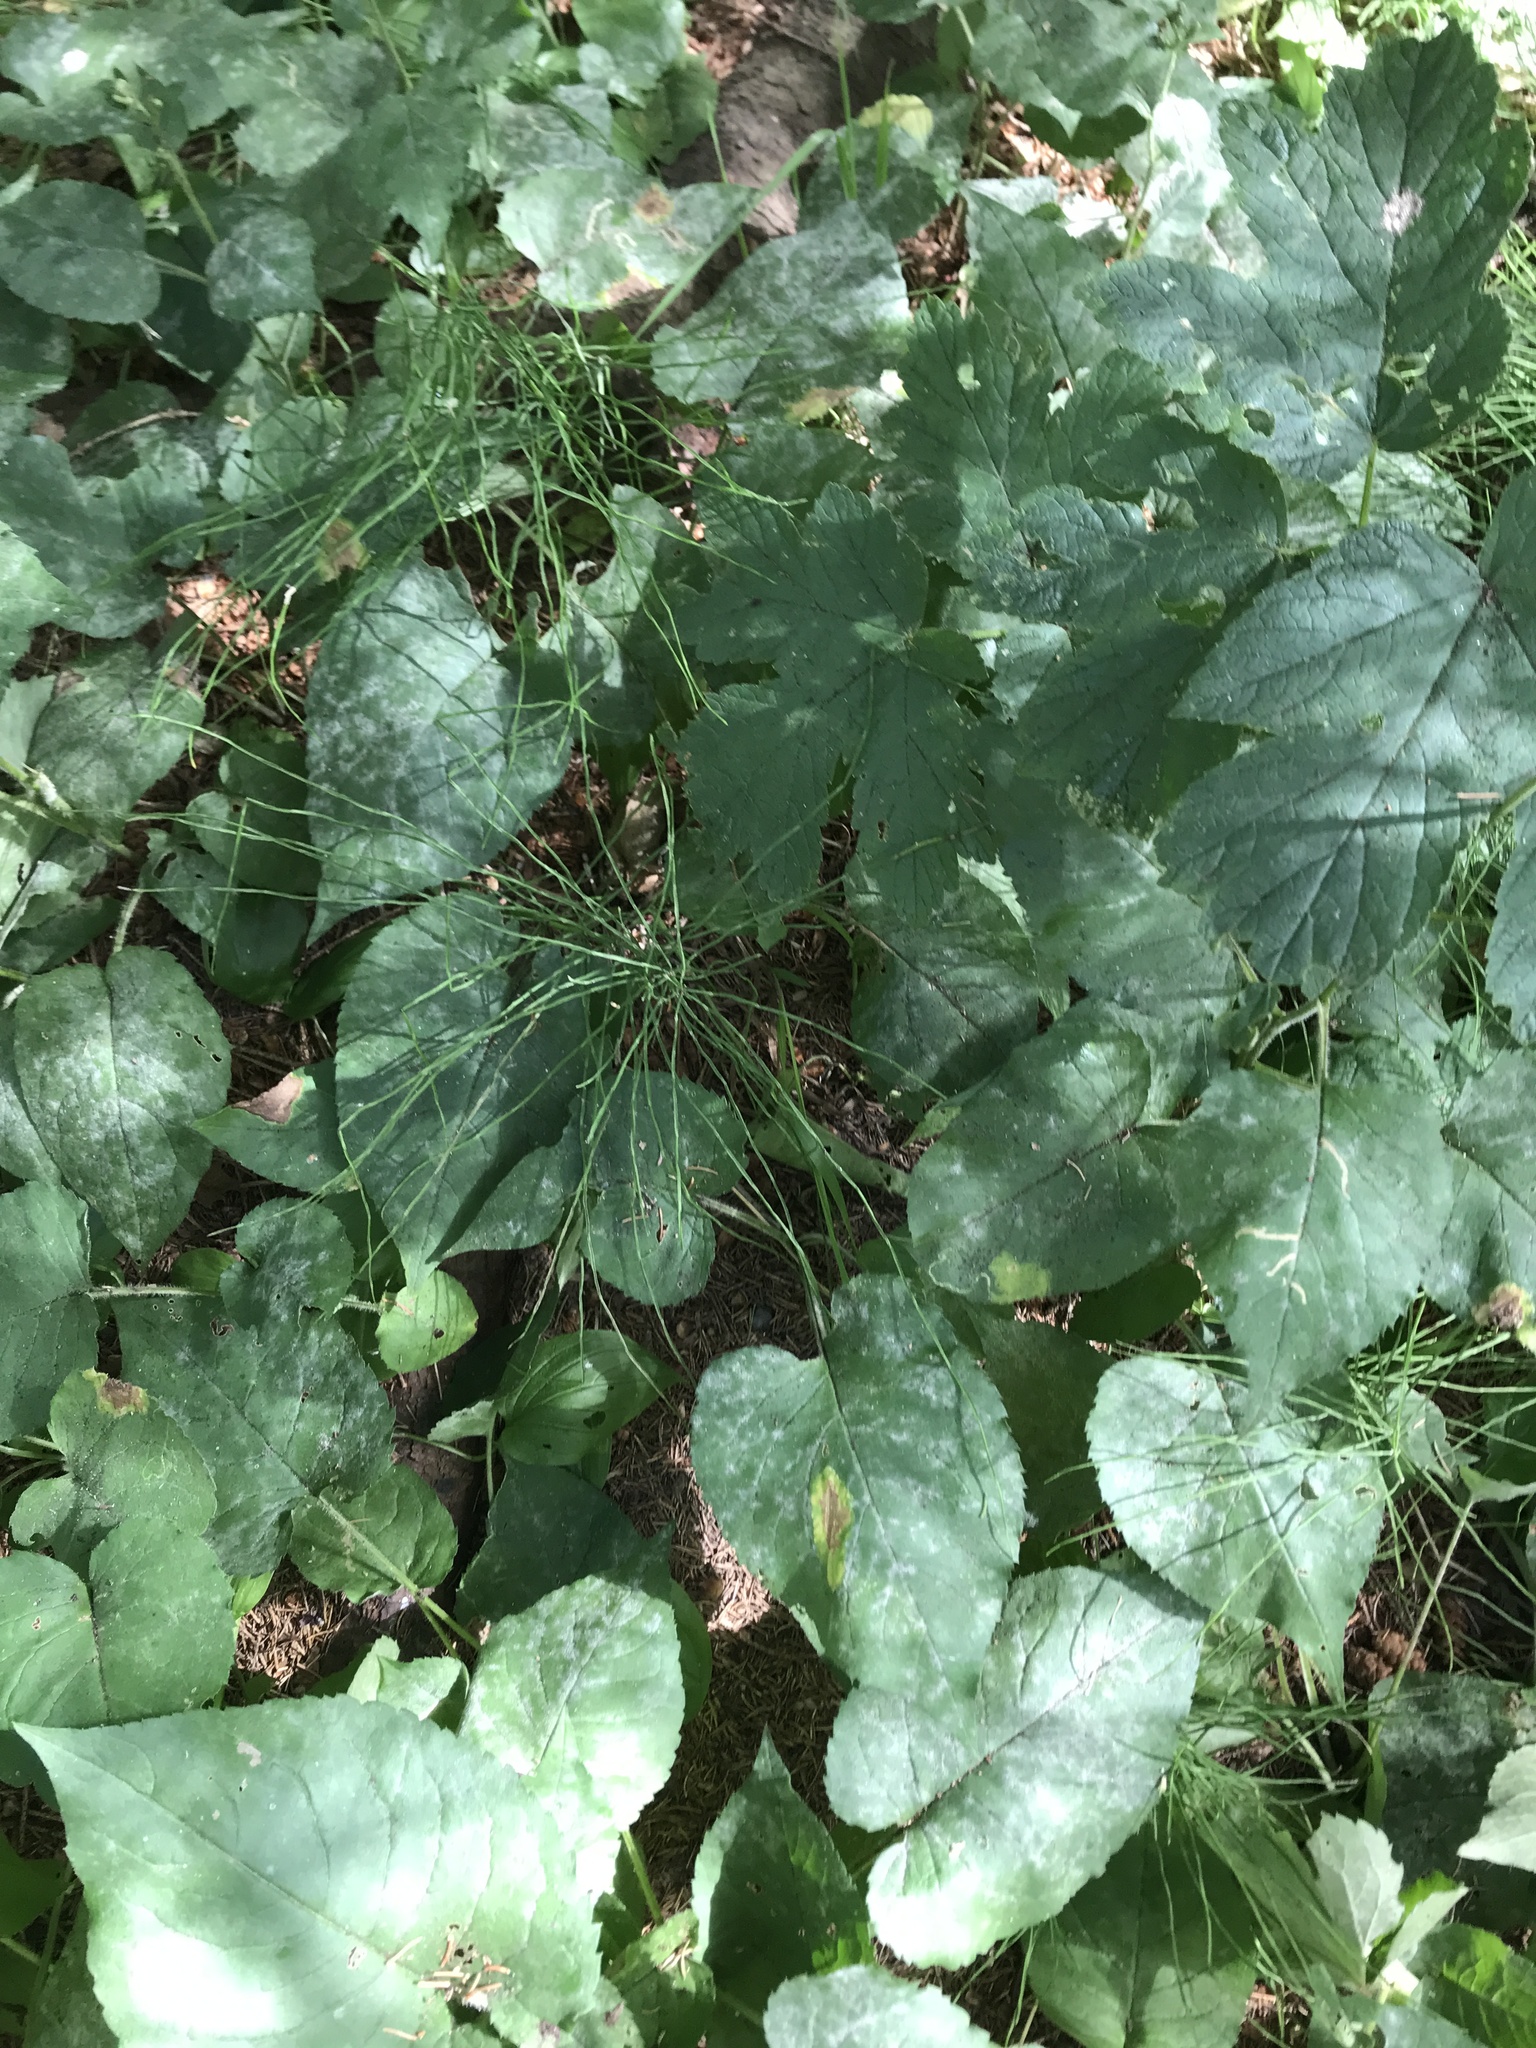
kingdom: Plantae
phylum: Tracheophyta
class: Magnoliopsida
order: Asterales
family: Asteraceae
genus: Eurybia
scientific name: Eurybia macrophylla
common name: Big-leaved aster
